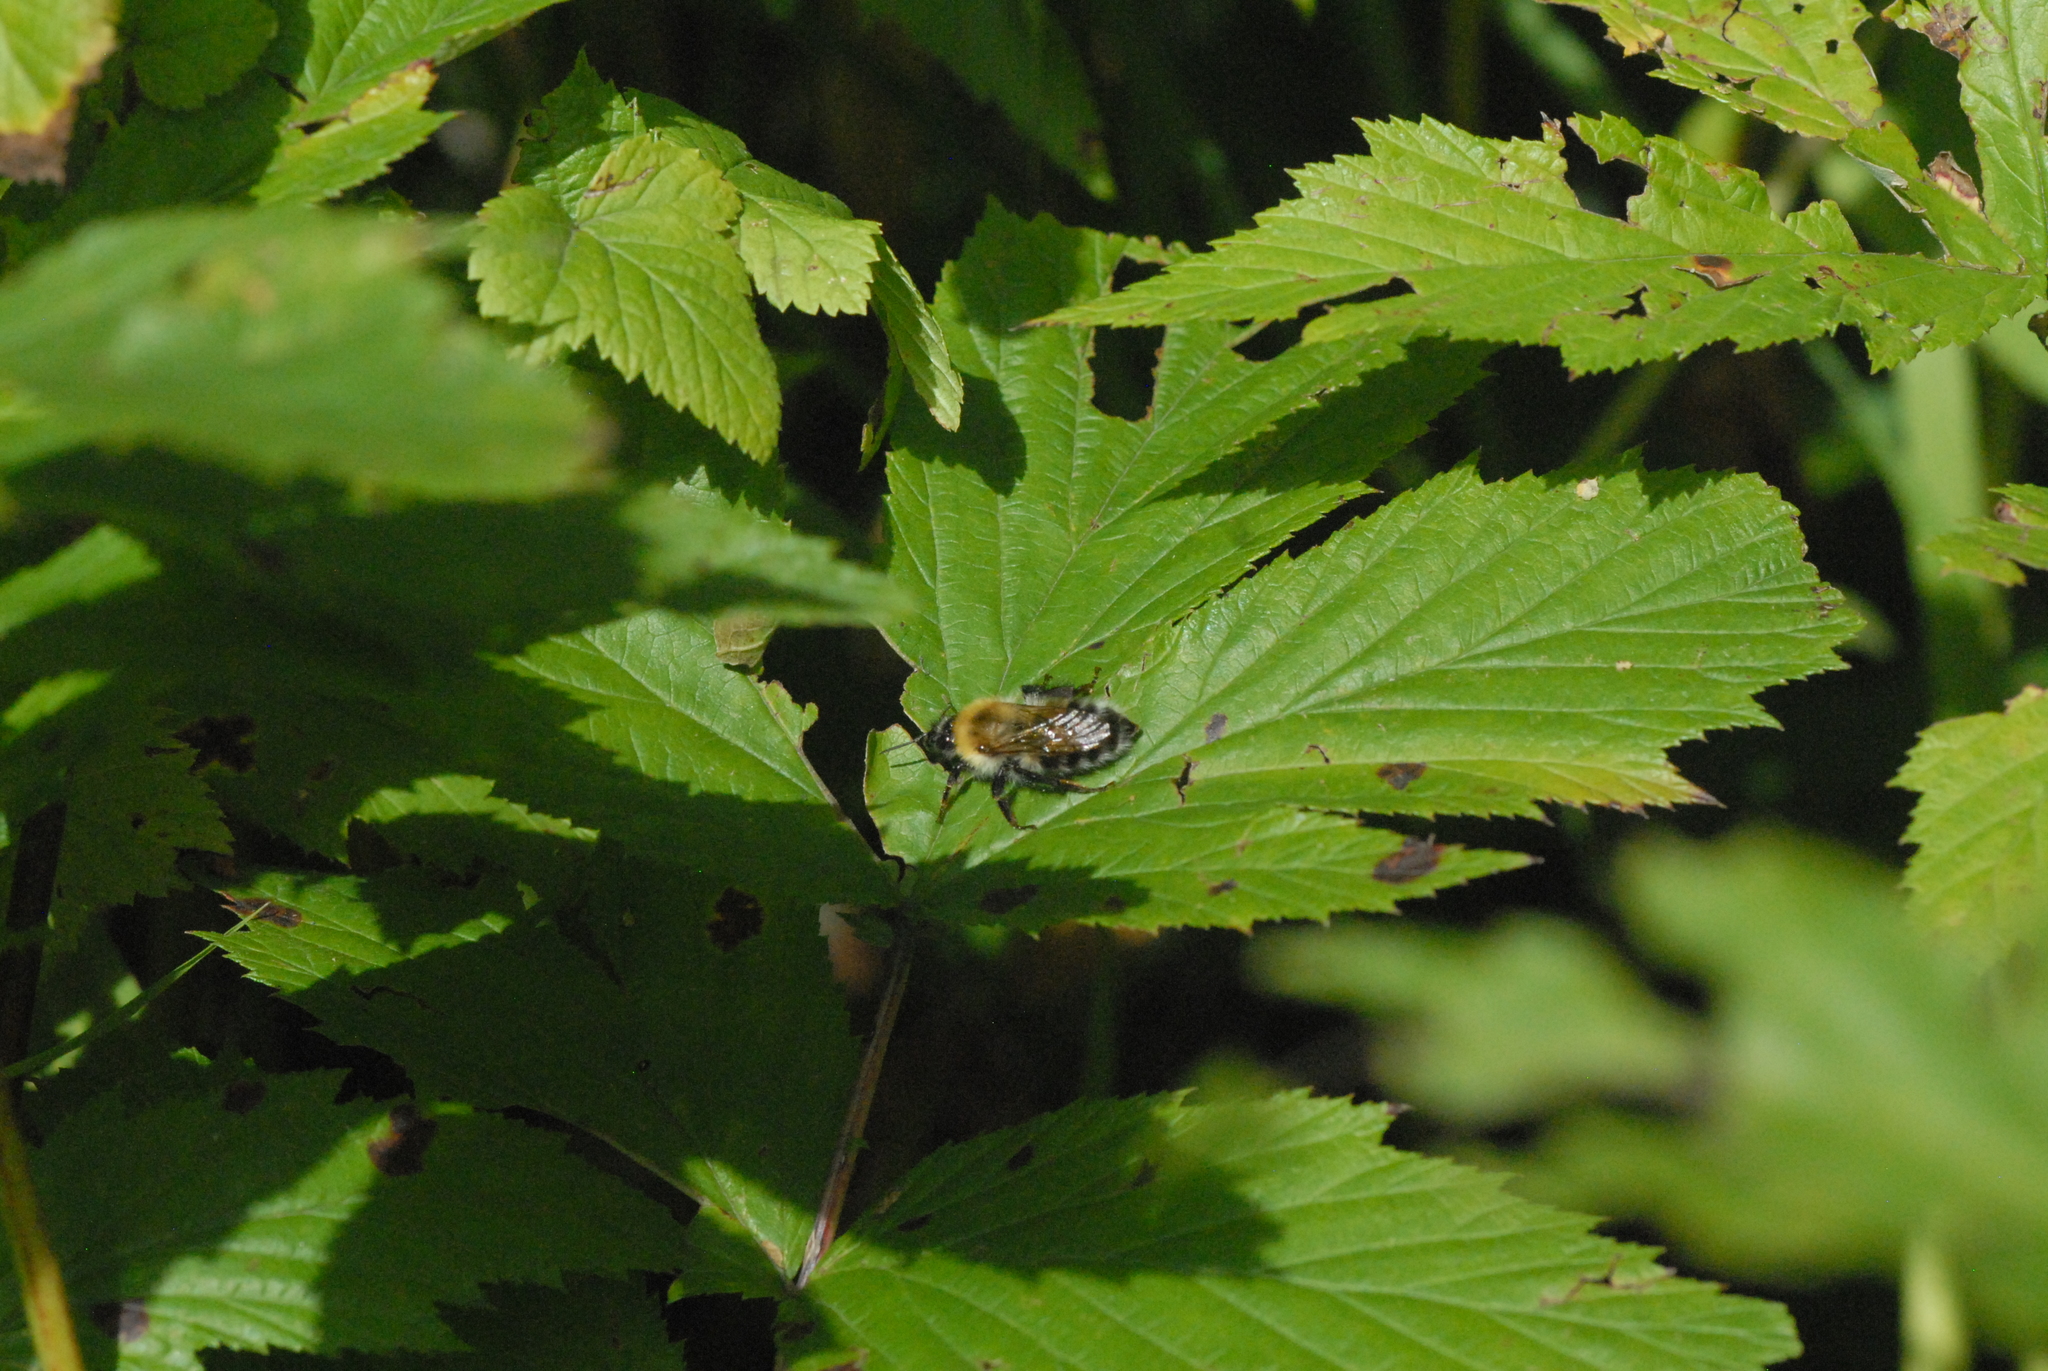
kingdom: Animalia
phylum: Arthropoda
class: Insecta
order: Hymenoptera
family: Apidae
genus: Bombus
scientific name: Bombus schrencki
